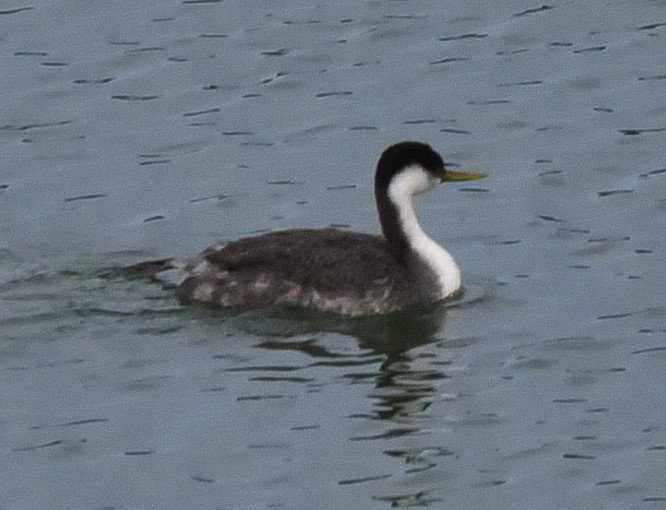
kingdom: Animalia
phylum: Chordata
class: Aves
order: Podicipediformes
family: Podicipedidae
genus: Aechmophorus
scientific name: Aechmophorus occidentalis
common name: Western grebe
